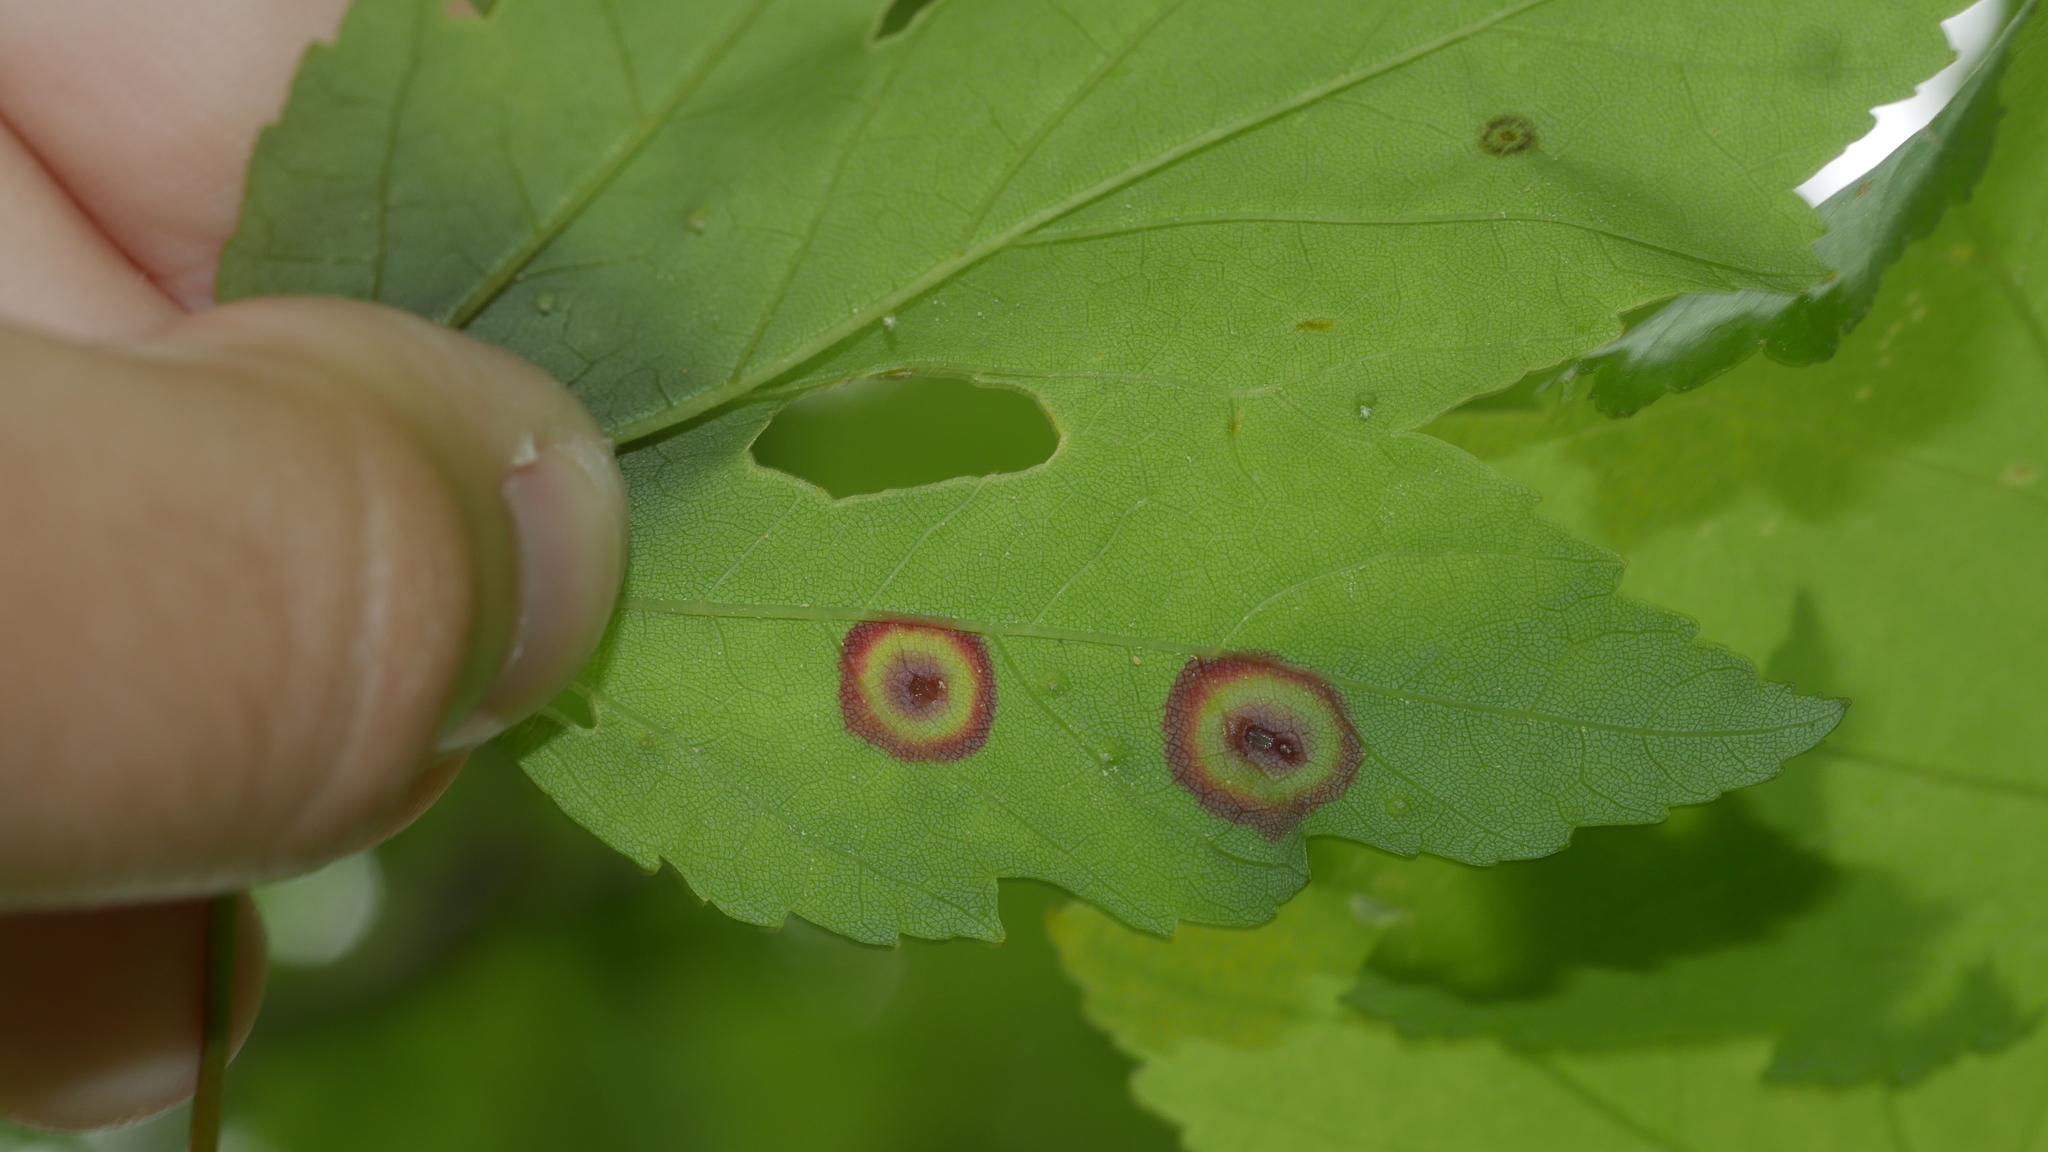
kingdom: Animalia
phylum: Arthropoda
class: Insecta
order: Diptera
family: Cecidomyiidae
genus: Acericecis
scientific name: Acericecis ocellaris
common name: Ocellate gall midge
